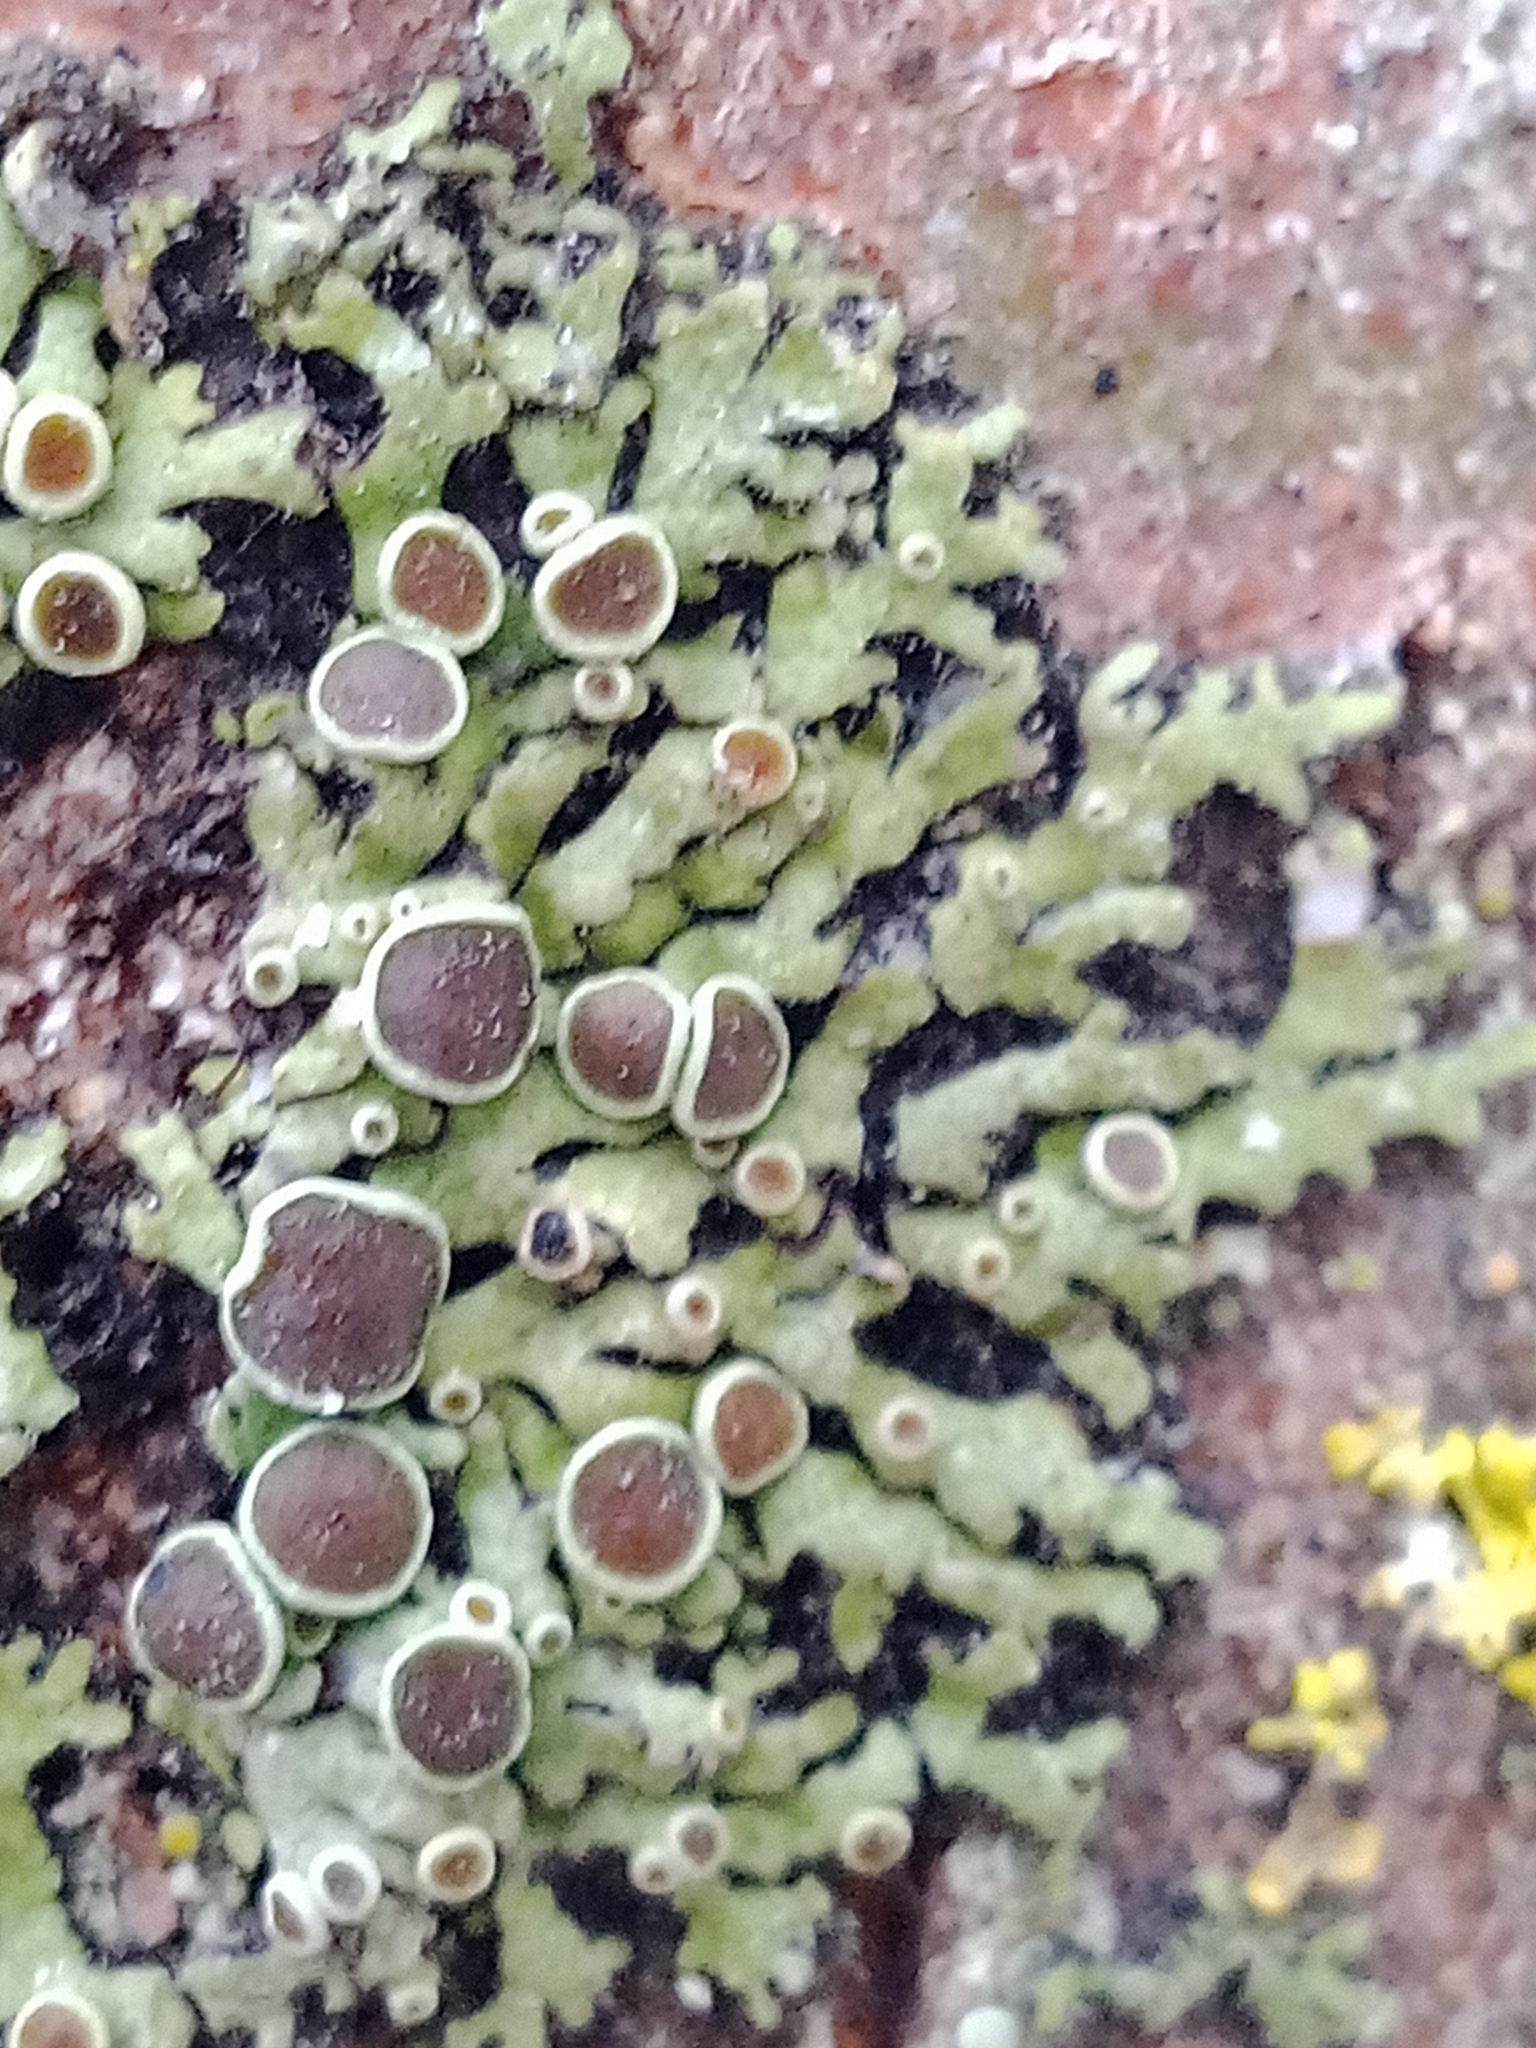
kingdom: Fungi
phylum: Ascomycota
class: Lecanoromycetes
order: Caliciales
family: Physciaceae
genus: Phaeophyscia
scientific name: Phaeophyscia ciliata
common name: Smooth shadow lichen
